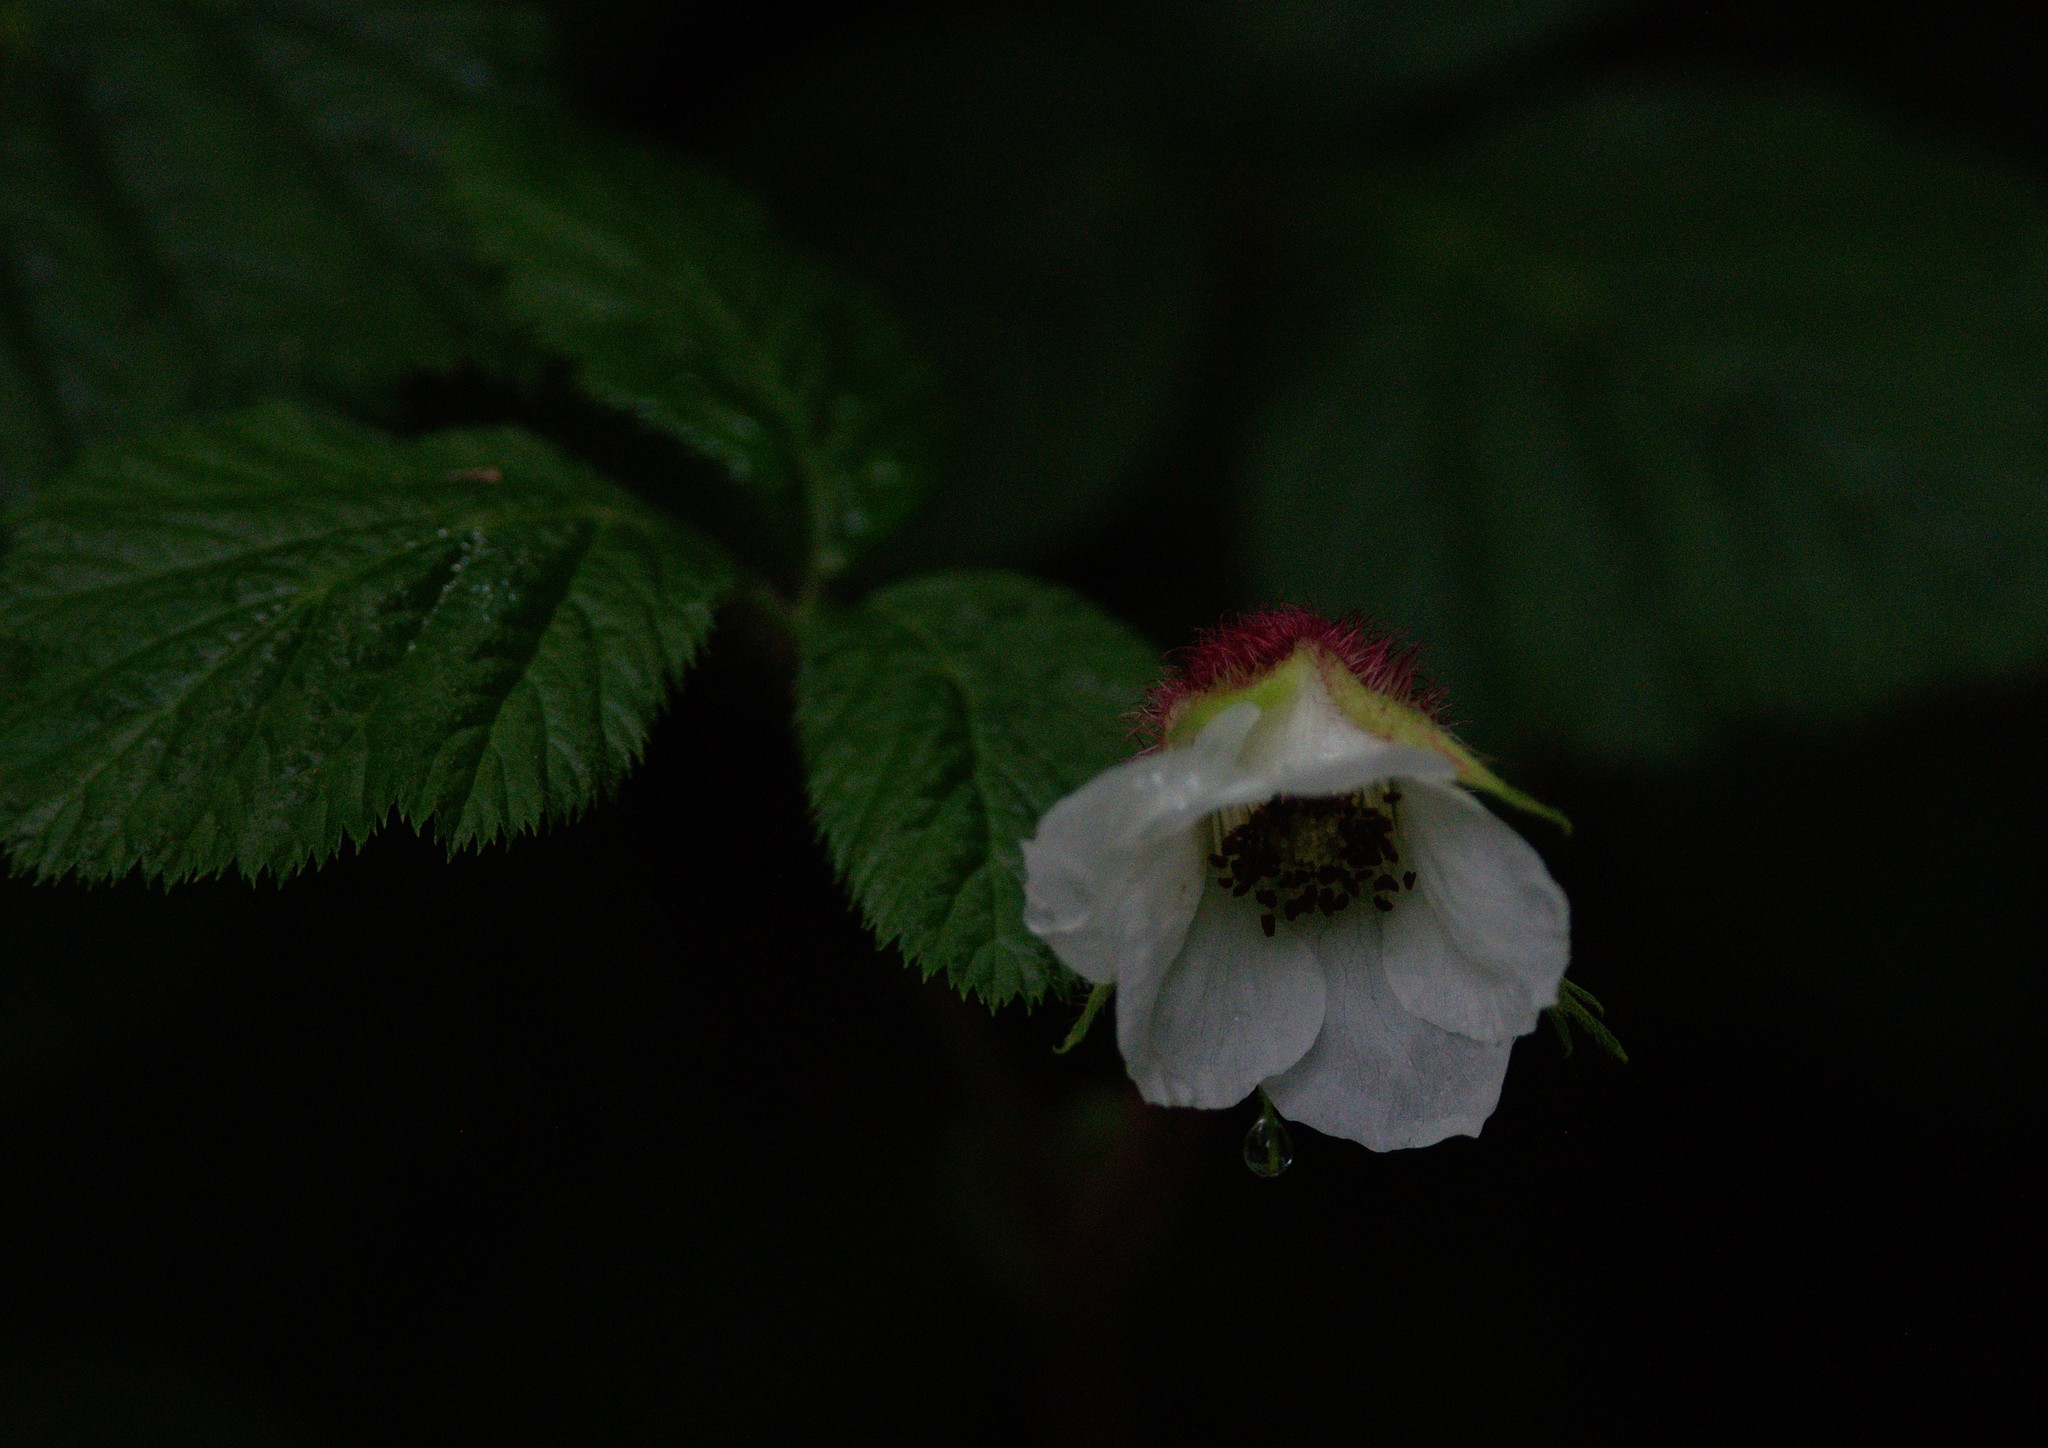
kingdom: Plantae
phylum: Tracheophyta
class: Magnoliopsida
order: Rosales
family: Rosaceae
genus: Rubus
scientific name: Rubus nepalensis
